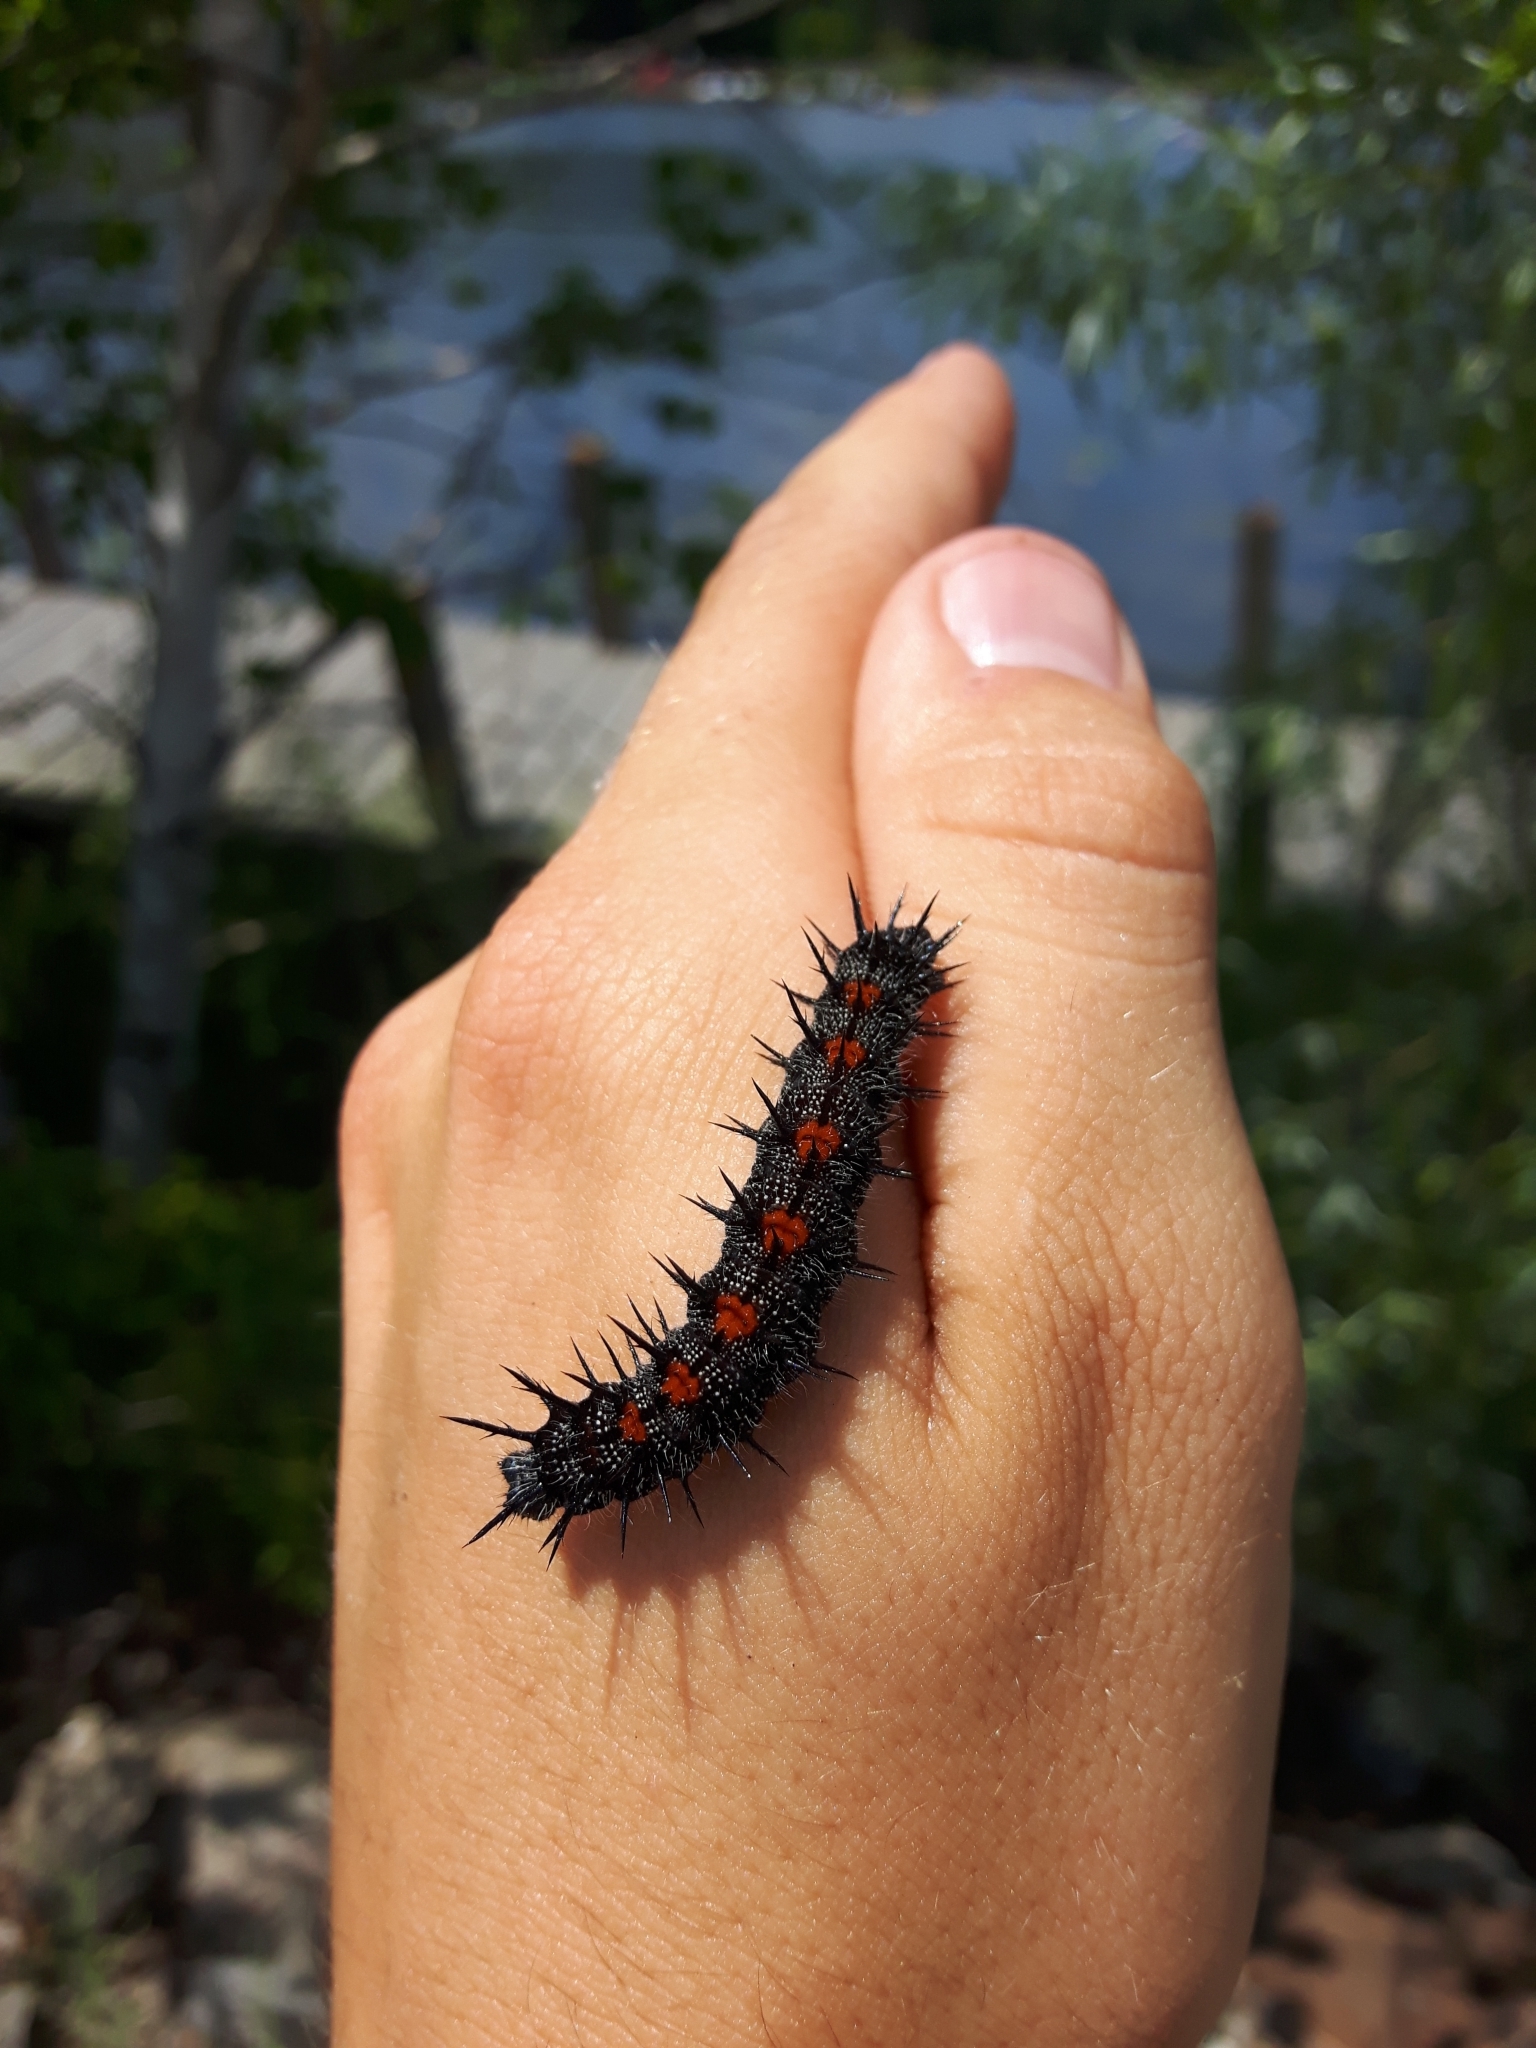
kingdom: Animalia
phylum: Arthropoda
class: Insecta
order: Lepidoptera
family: Nymphalidae
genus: Nymphalis
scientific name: Nymphalis antiopa
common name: Camberwell beauty
